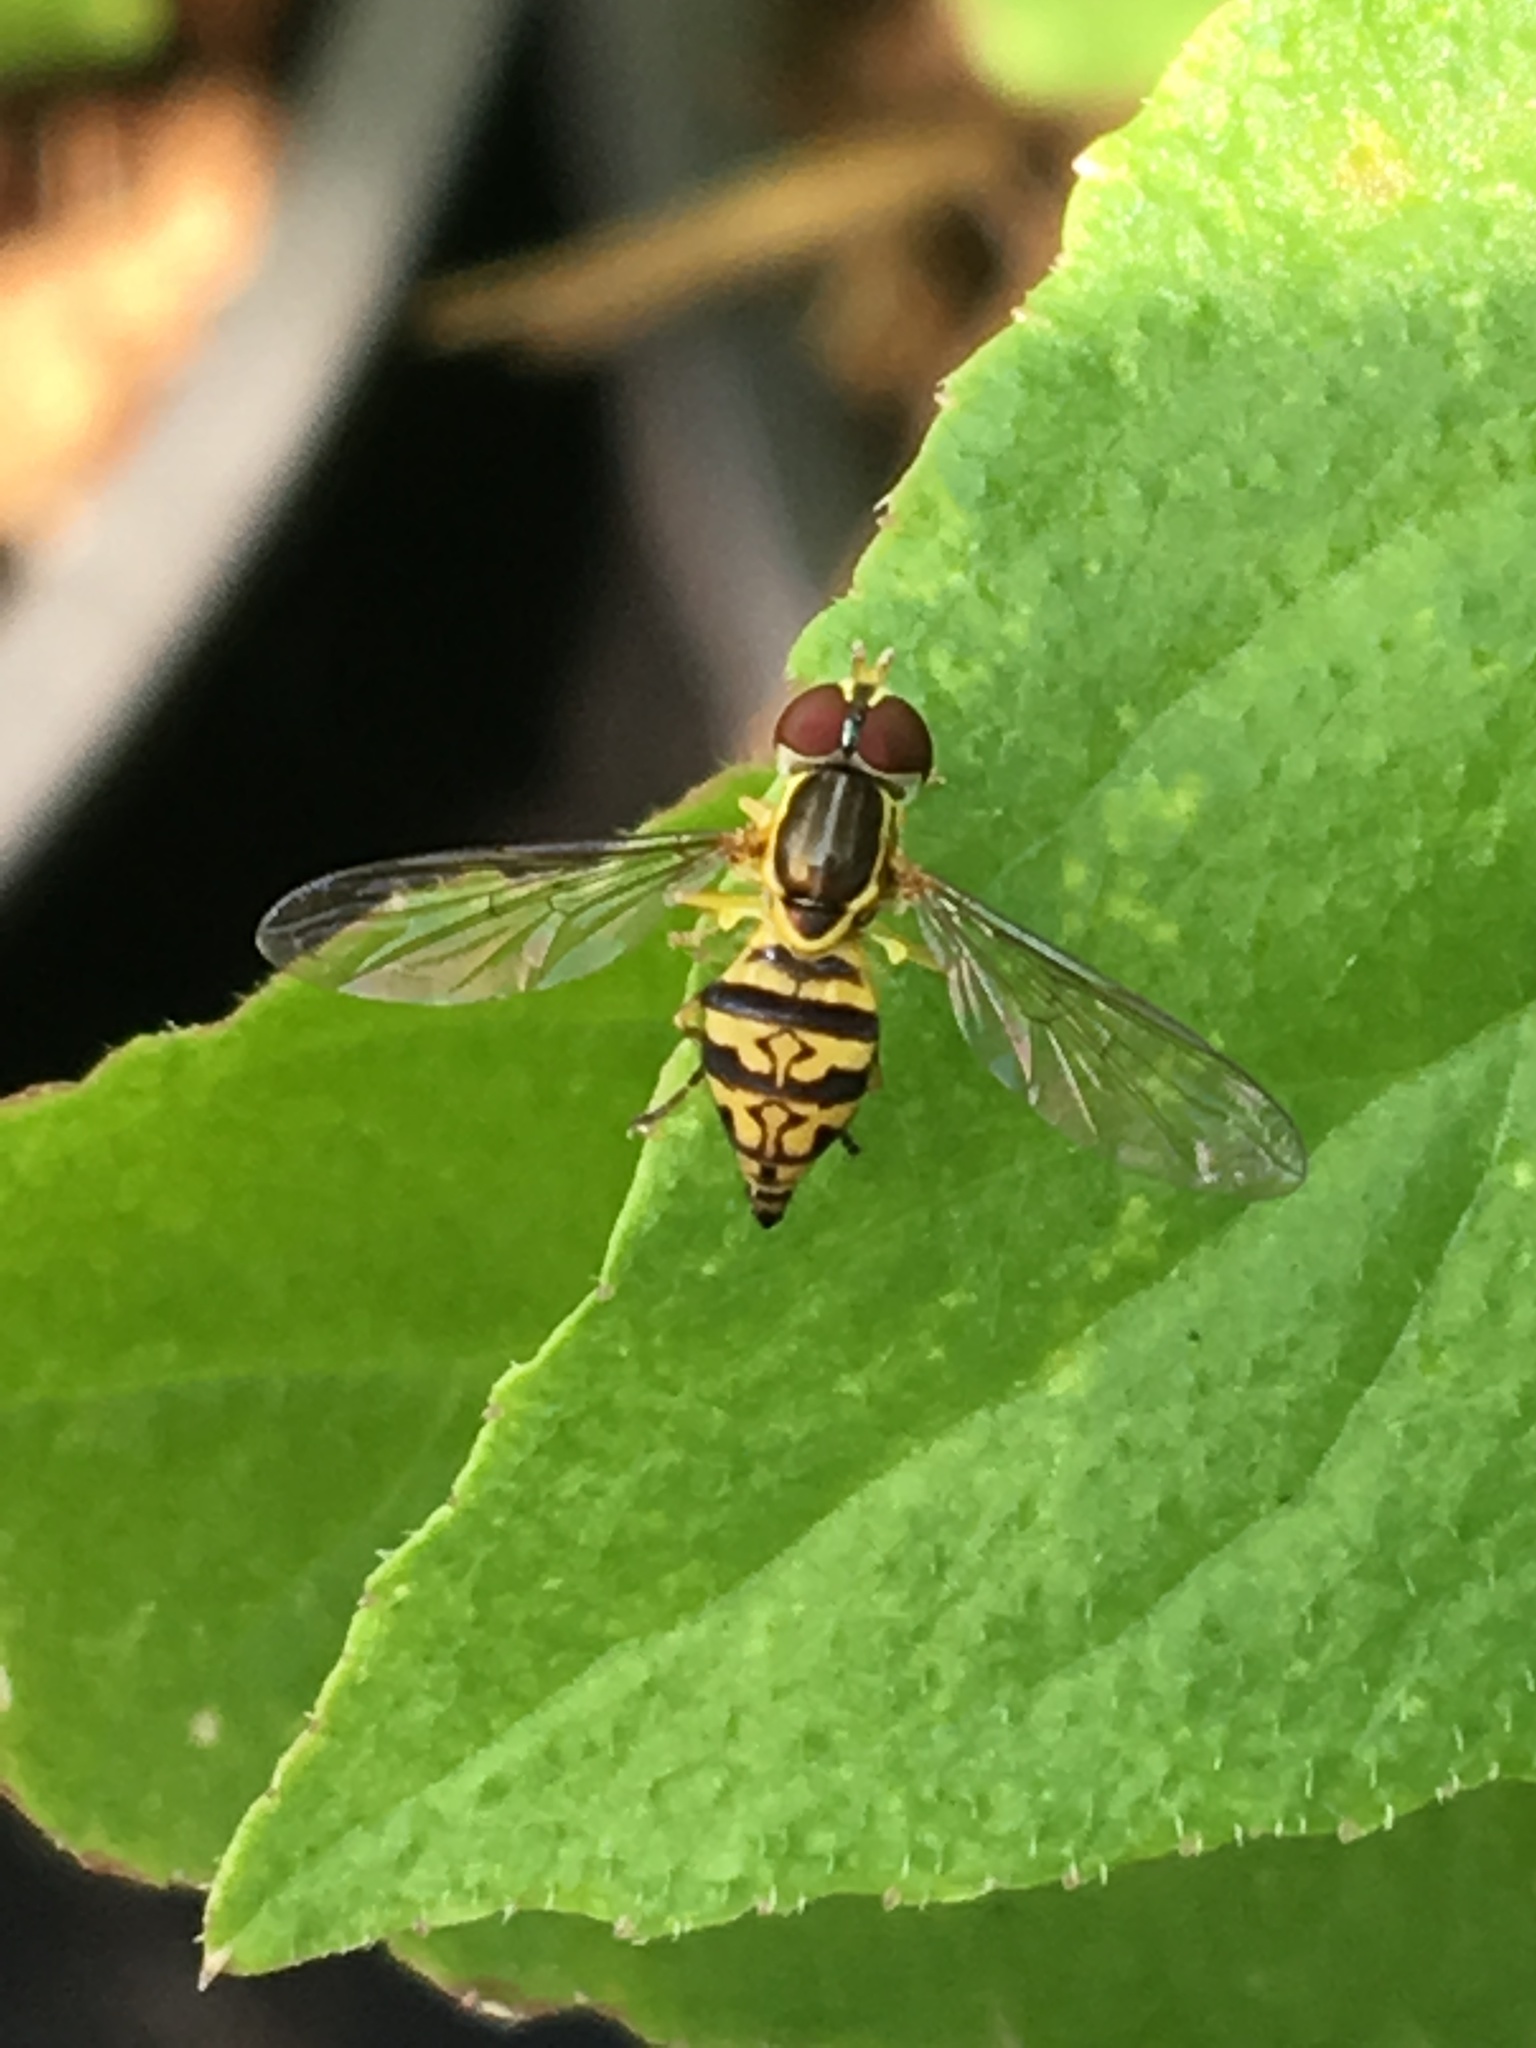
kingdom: Animalia
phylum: Arthropoda
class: Insecta
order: Diptera
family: Syrphidae
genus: Toxomerus
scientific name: Toxomerus geminatus
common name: Eastern calligrapher
